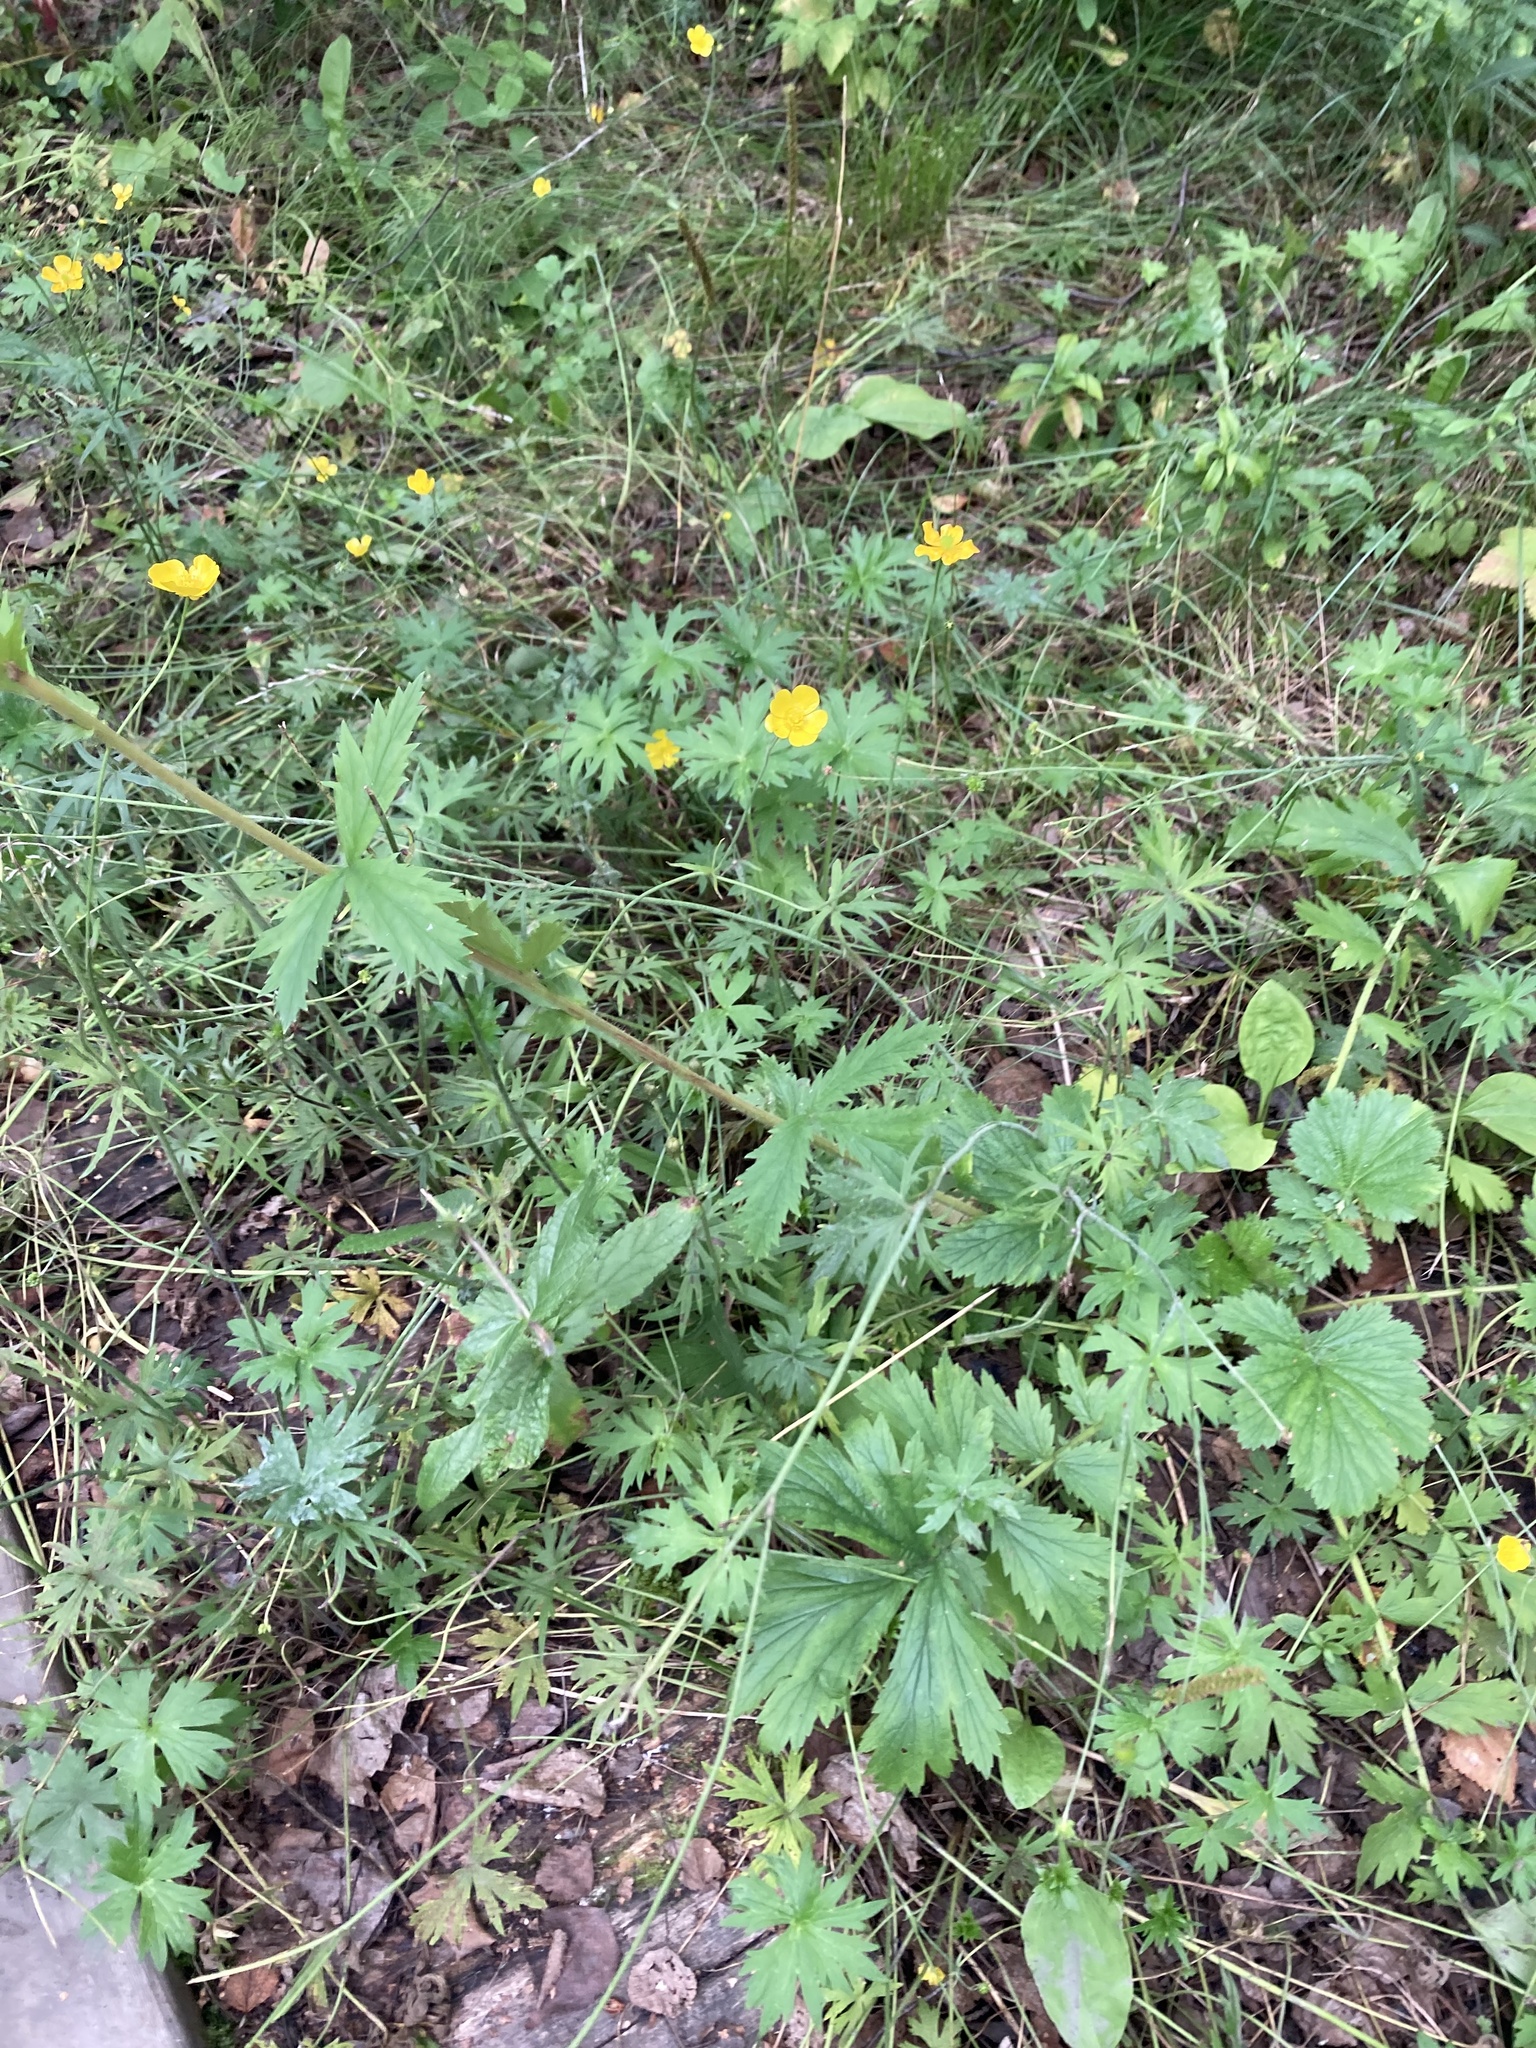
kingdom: Plantae
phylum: Tracheophyta
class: Magnoliopsida
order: Rosales
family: Rosaceae
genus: Geum
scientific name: Geum macrophyllum
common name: Large-leaved avens
